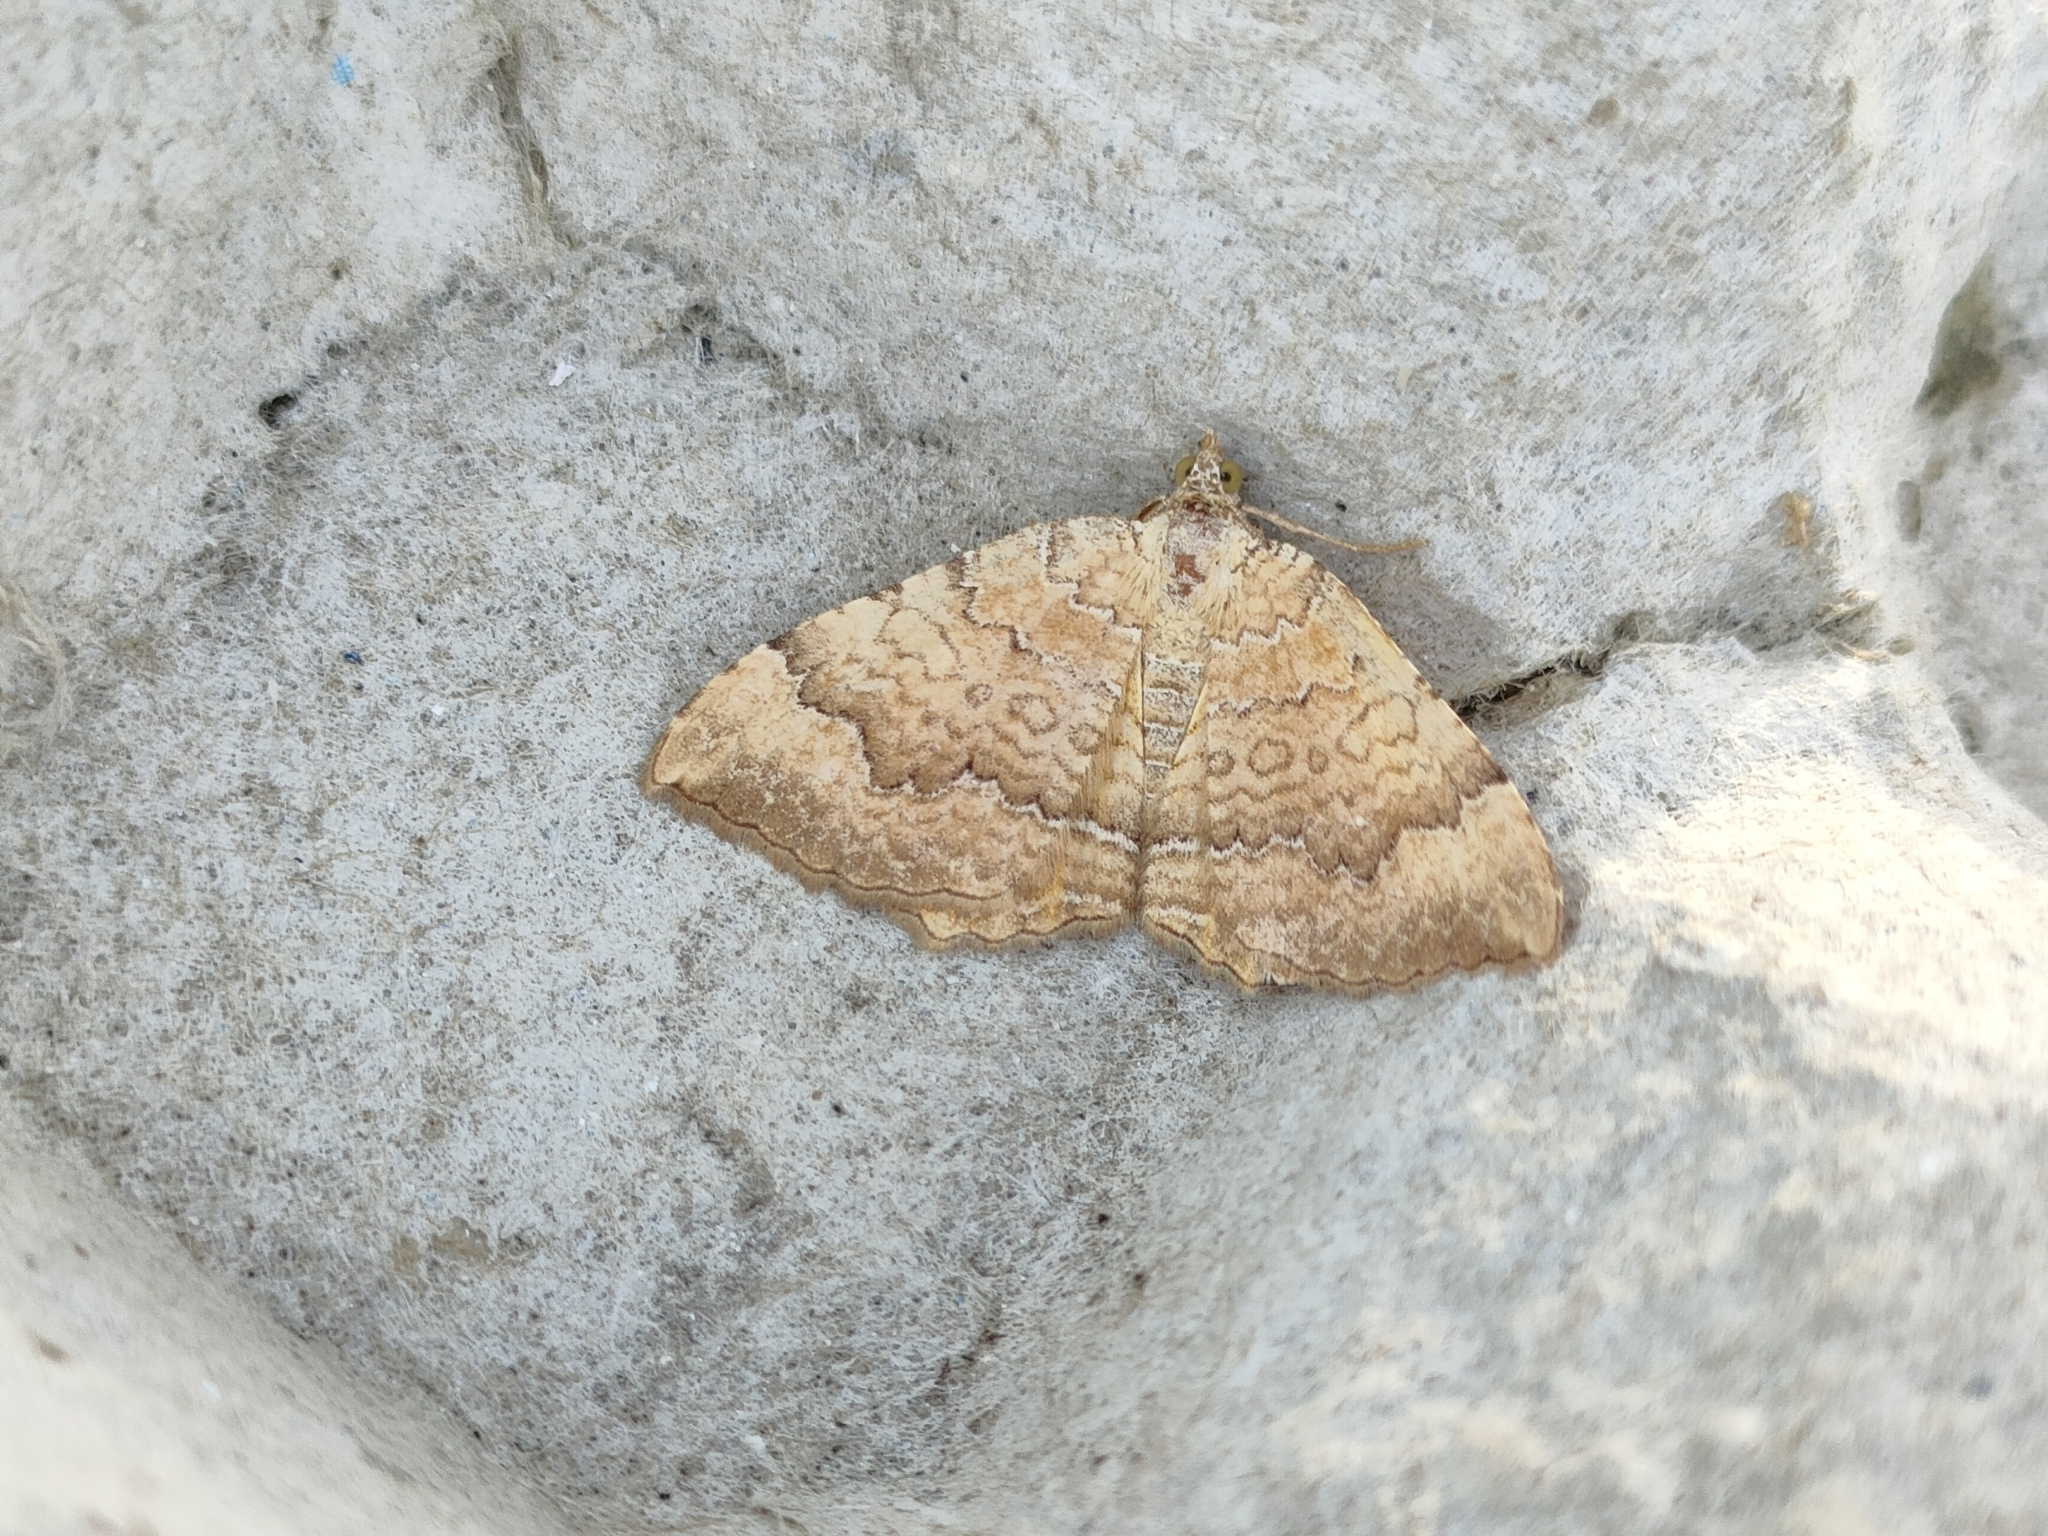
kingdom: Animalia
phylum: Arthropoda
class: Insecta
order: Lepidoptera
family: Geometridae
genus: Camptogramma
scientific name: Camptogramma bilineata
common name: Yellow shell
